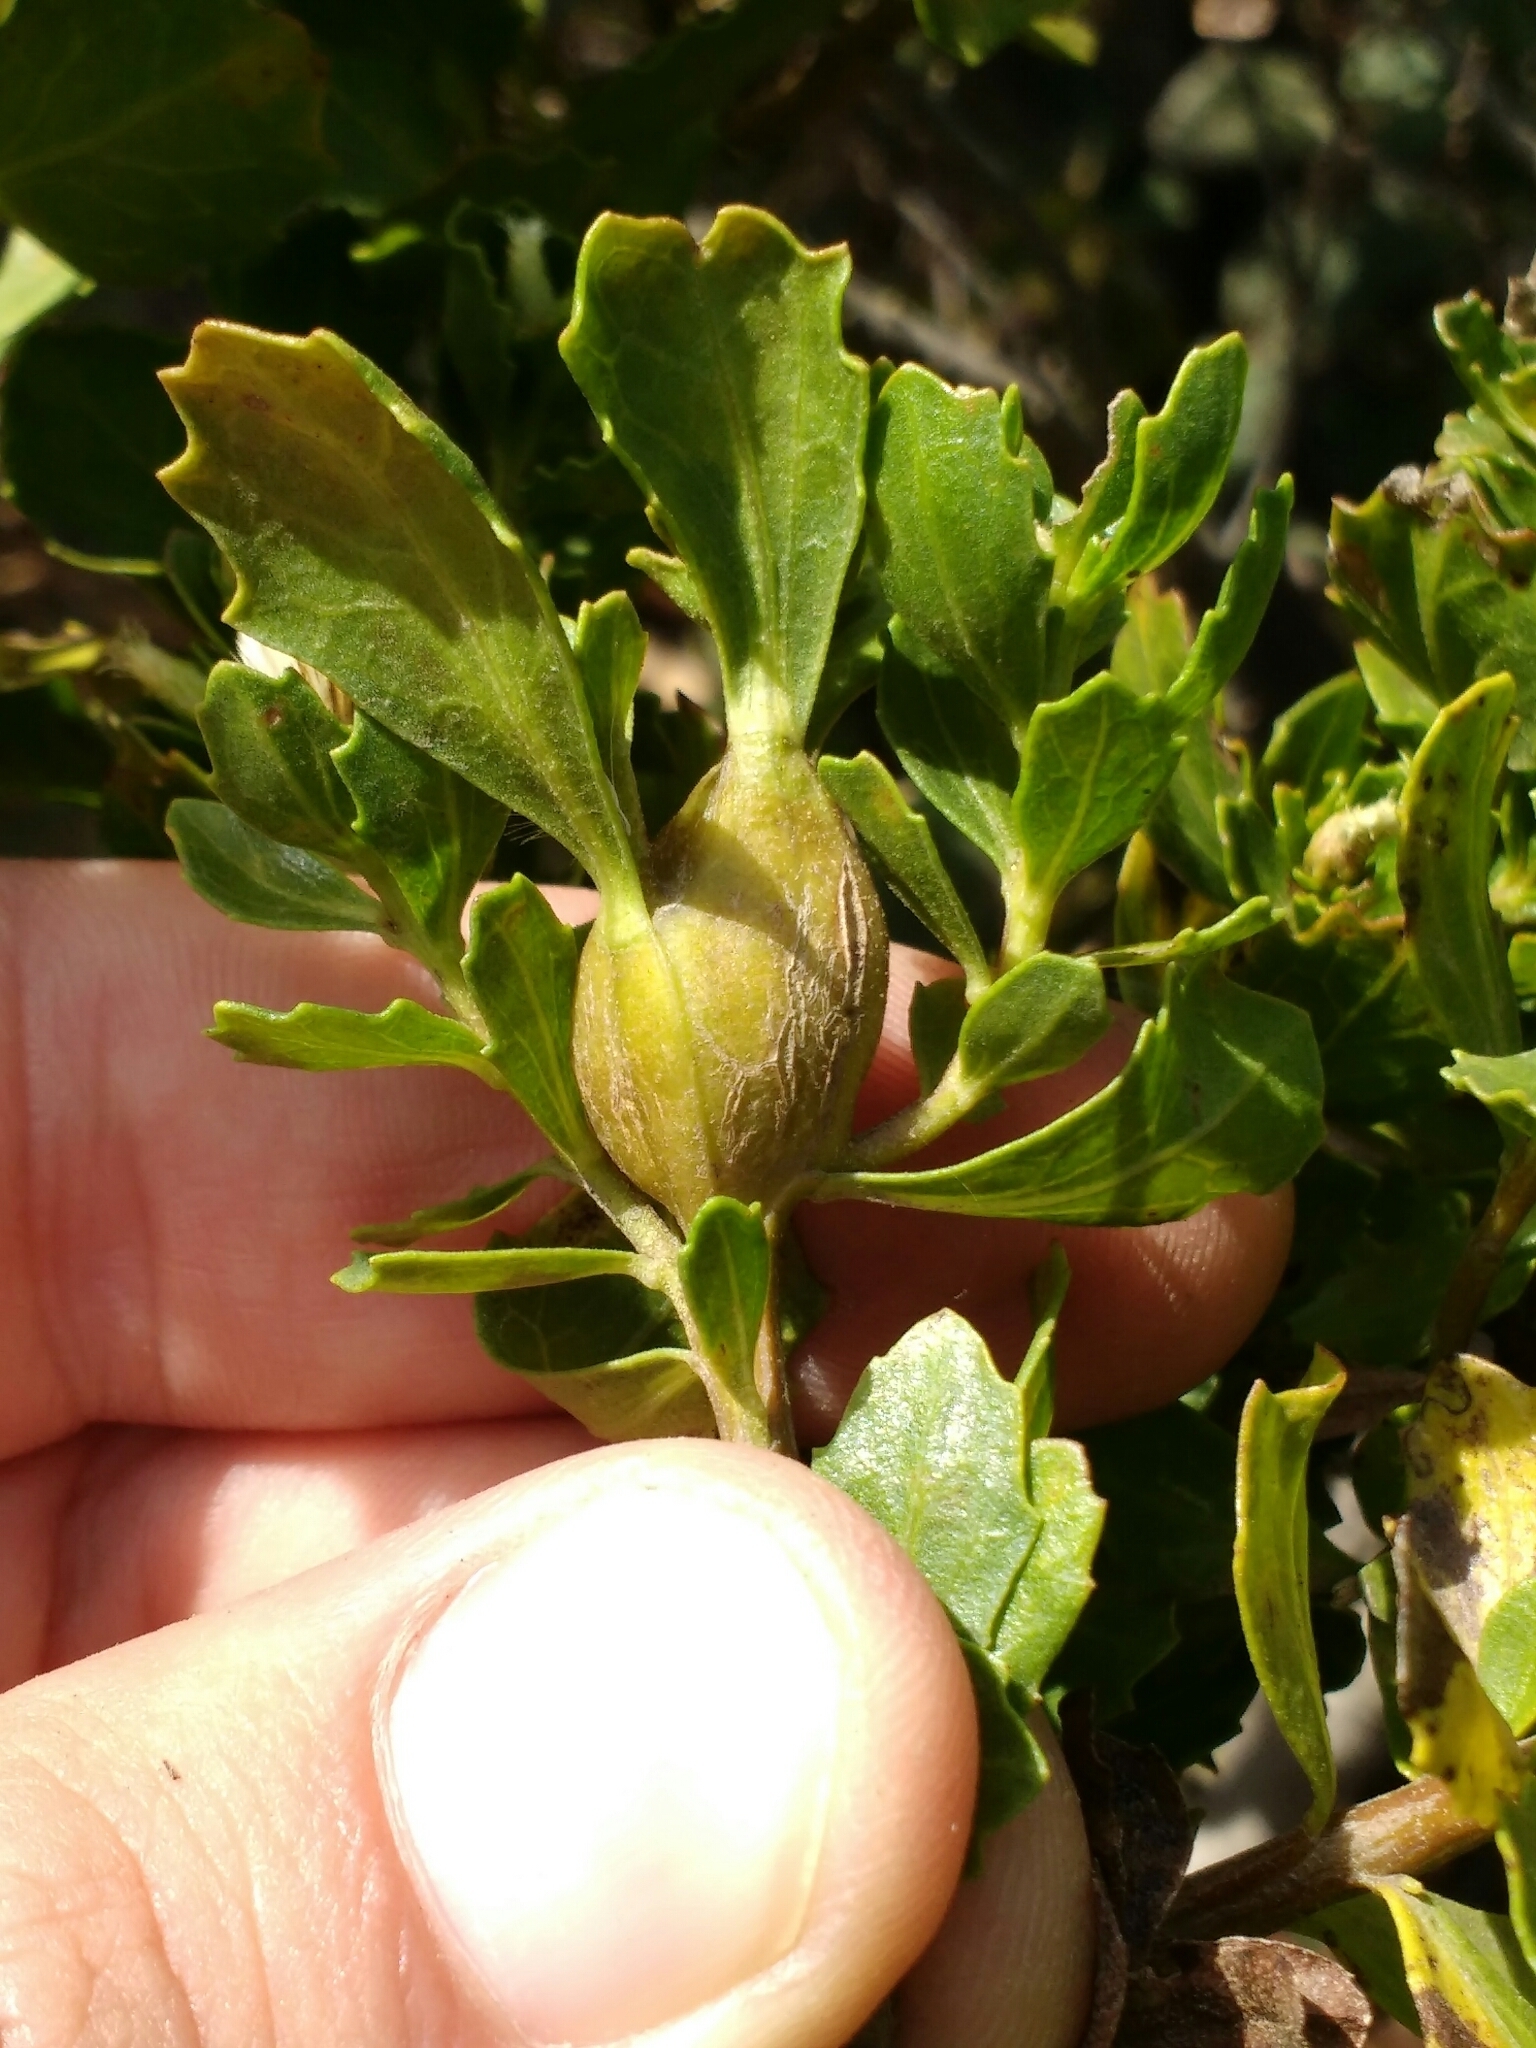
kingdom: Animalia
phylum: Arthropoda
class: Insecta
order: Lepidoptera
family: Gelechiidae
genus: Gnorimoschema
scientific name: Gnorimoschema baccharisella
